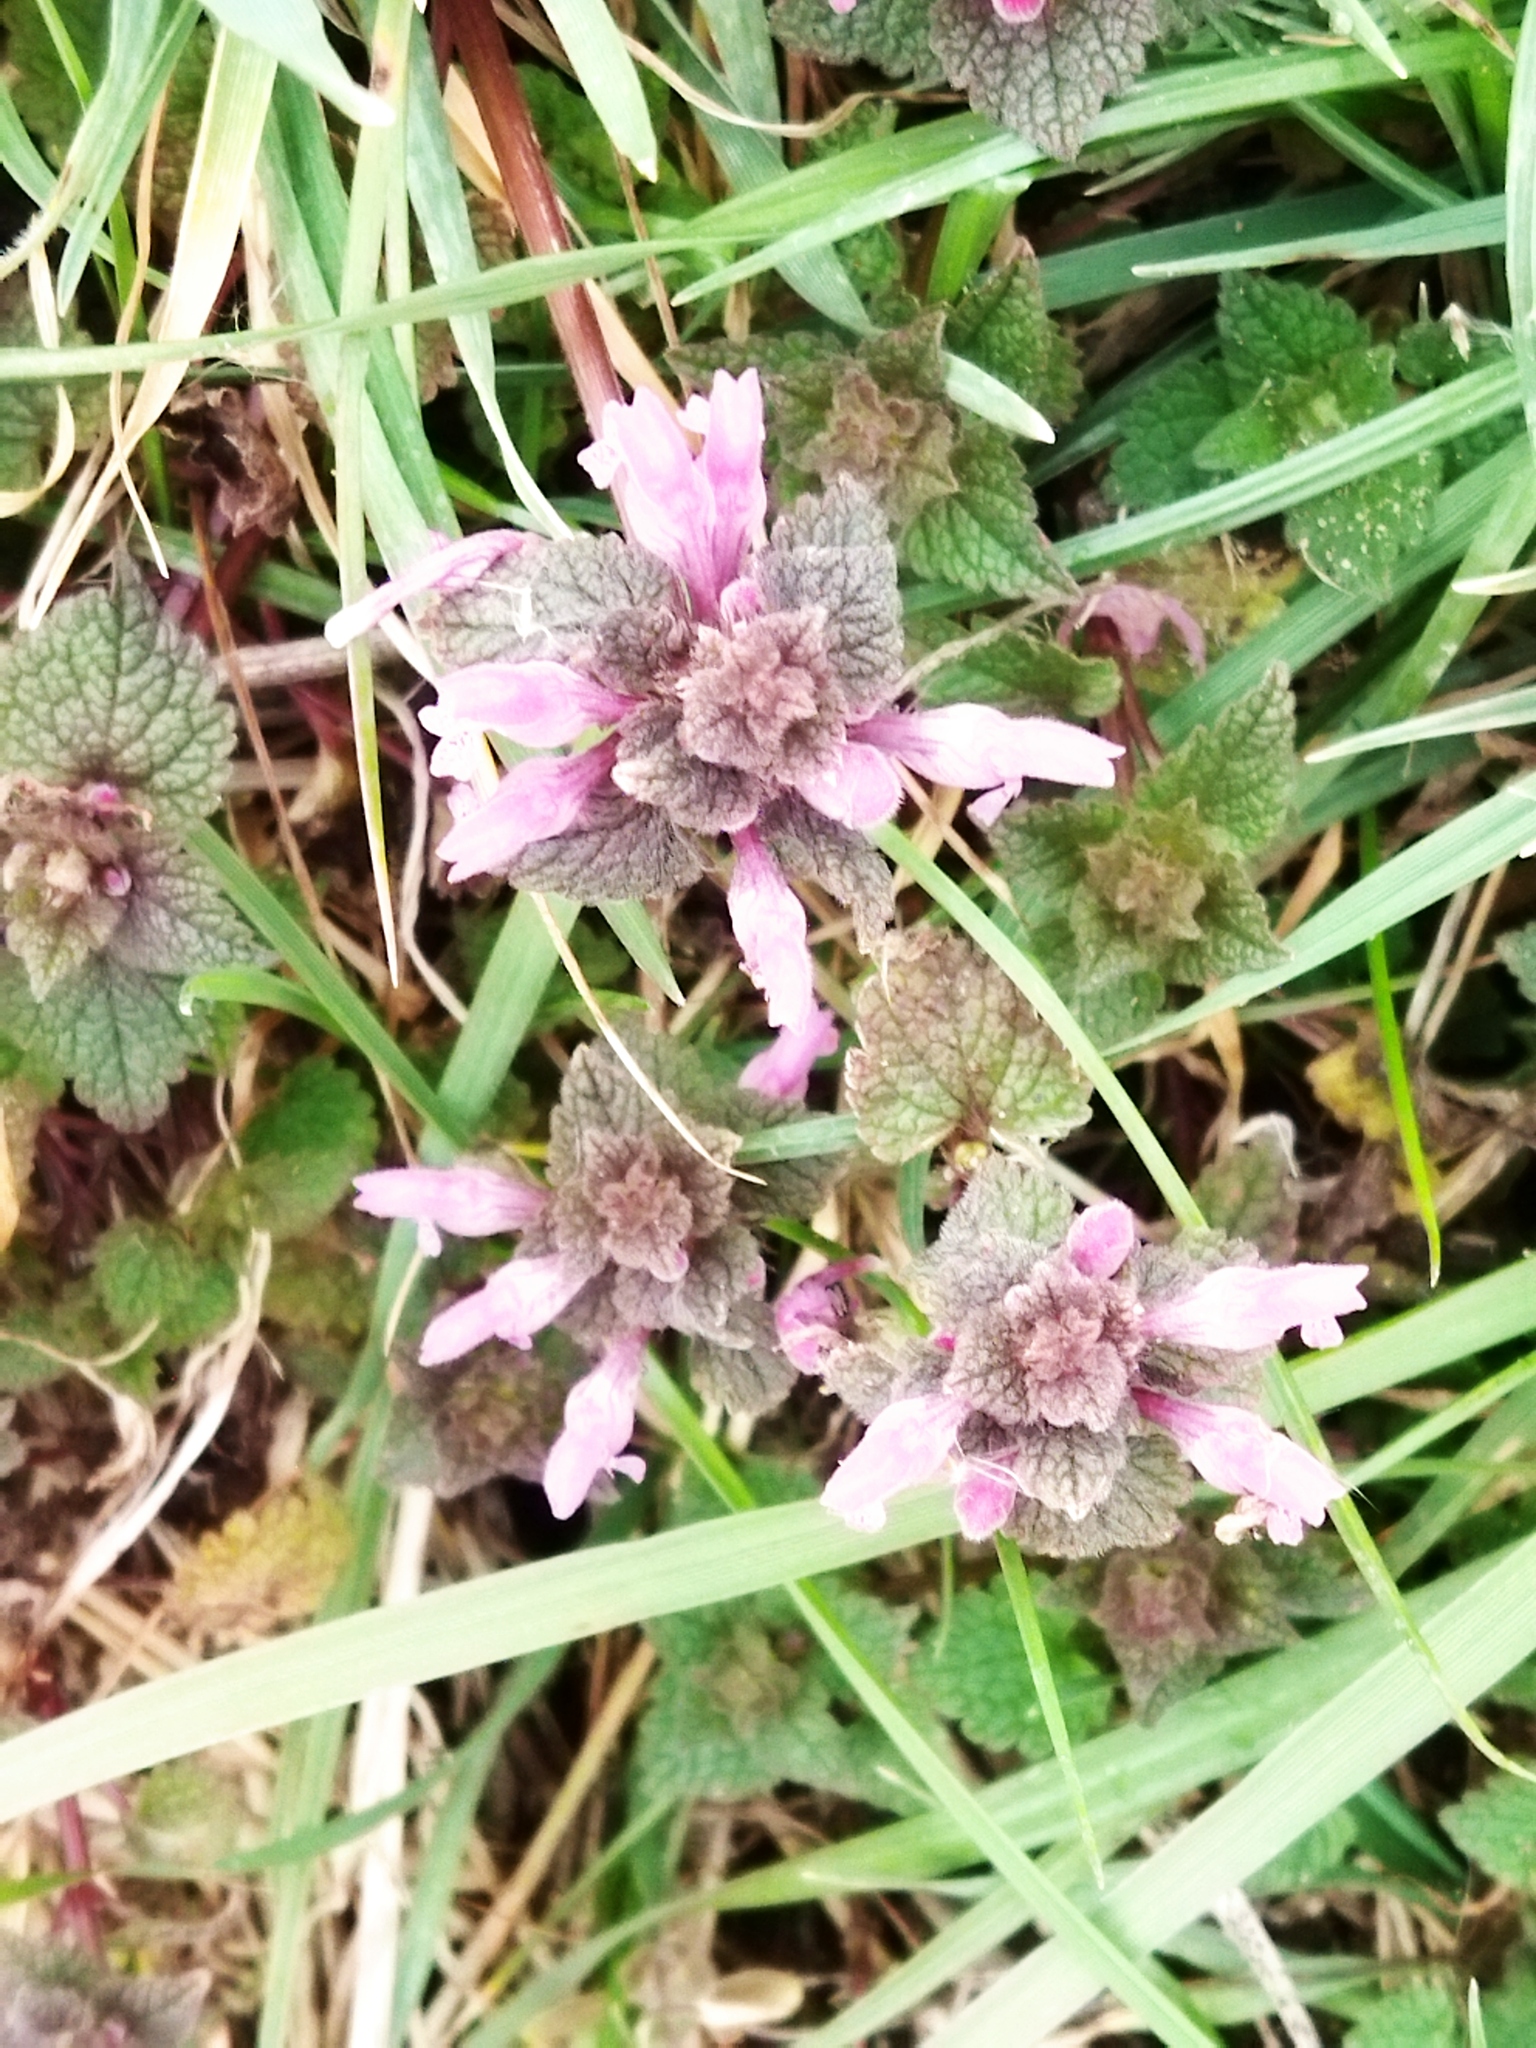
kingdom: Plantae
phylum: Tracheophyta
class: Magnoliopsida
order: Lamiales
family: Lamiaceae
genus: Lamium
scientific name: Lamium purpureum
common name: Red dead-nettle
